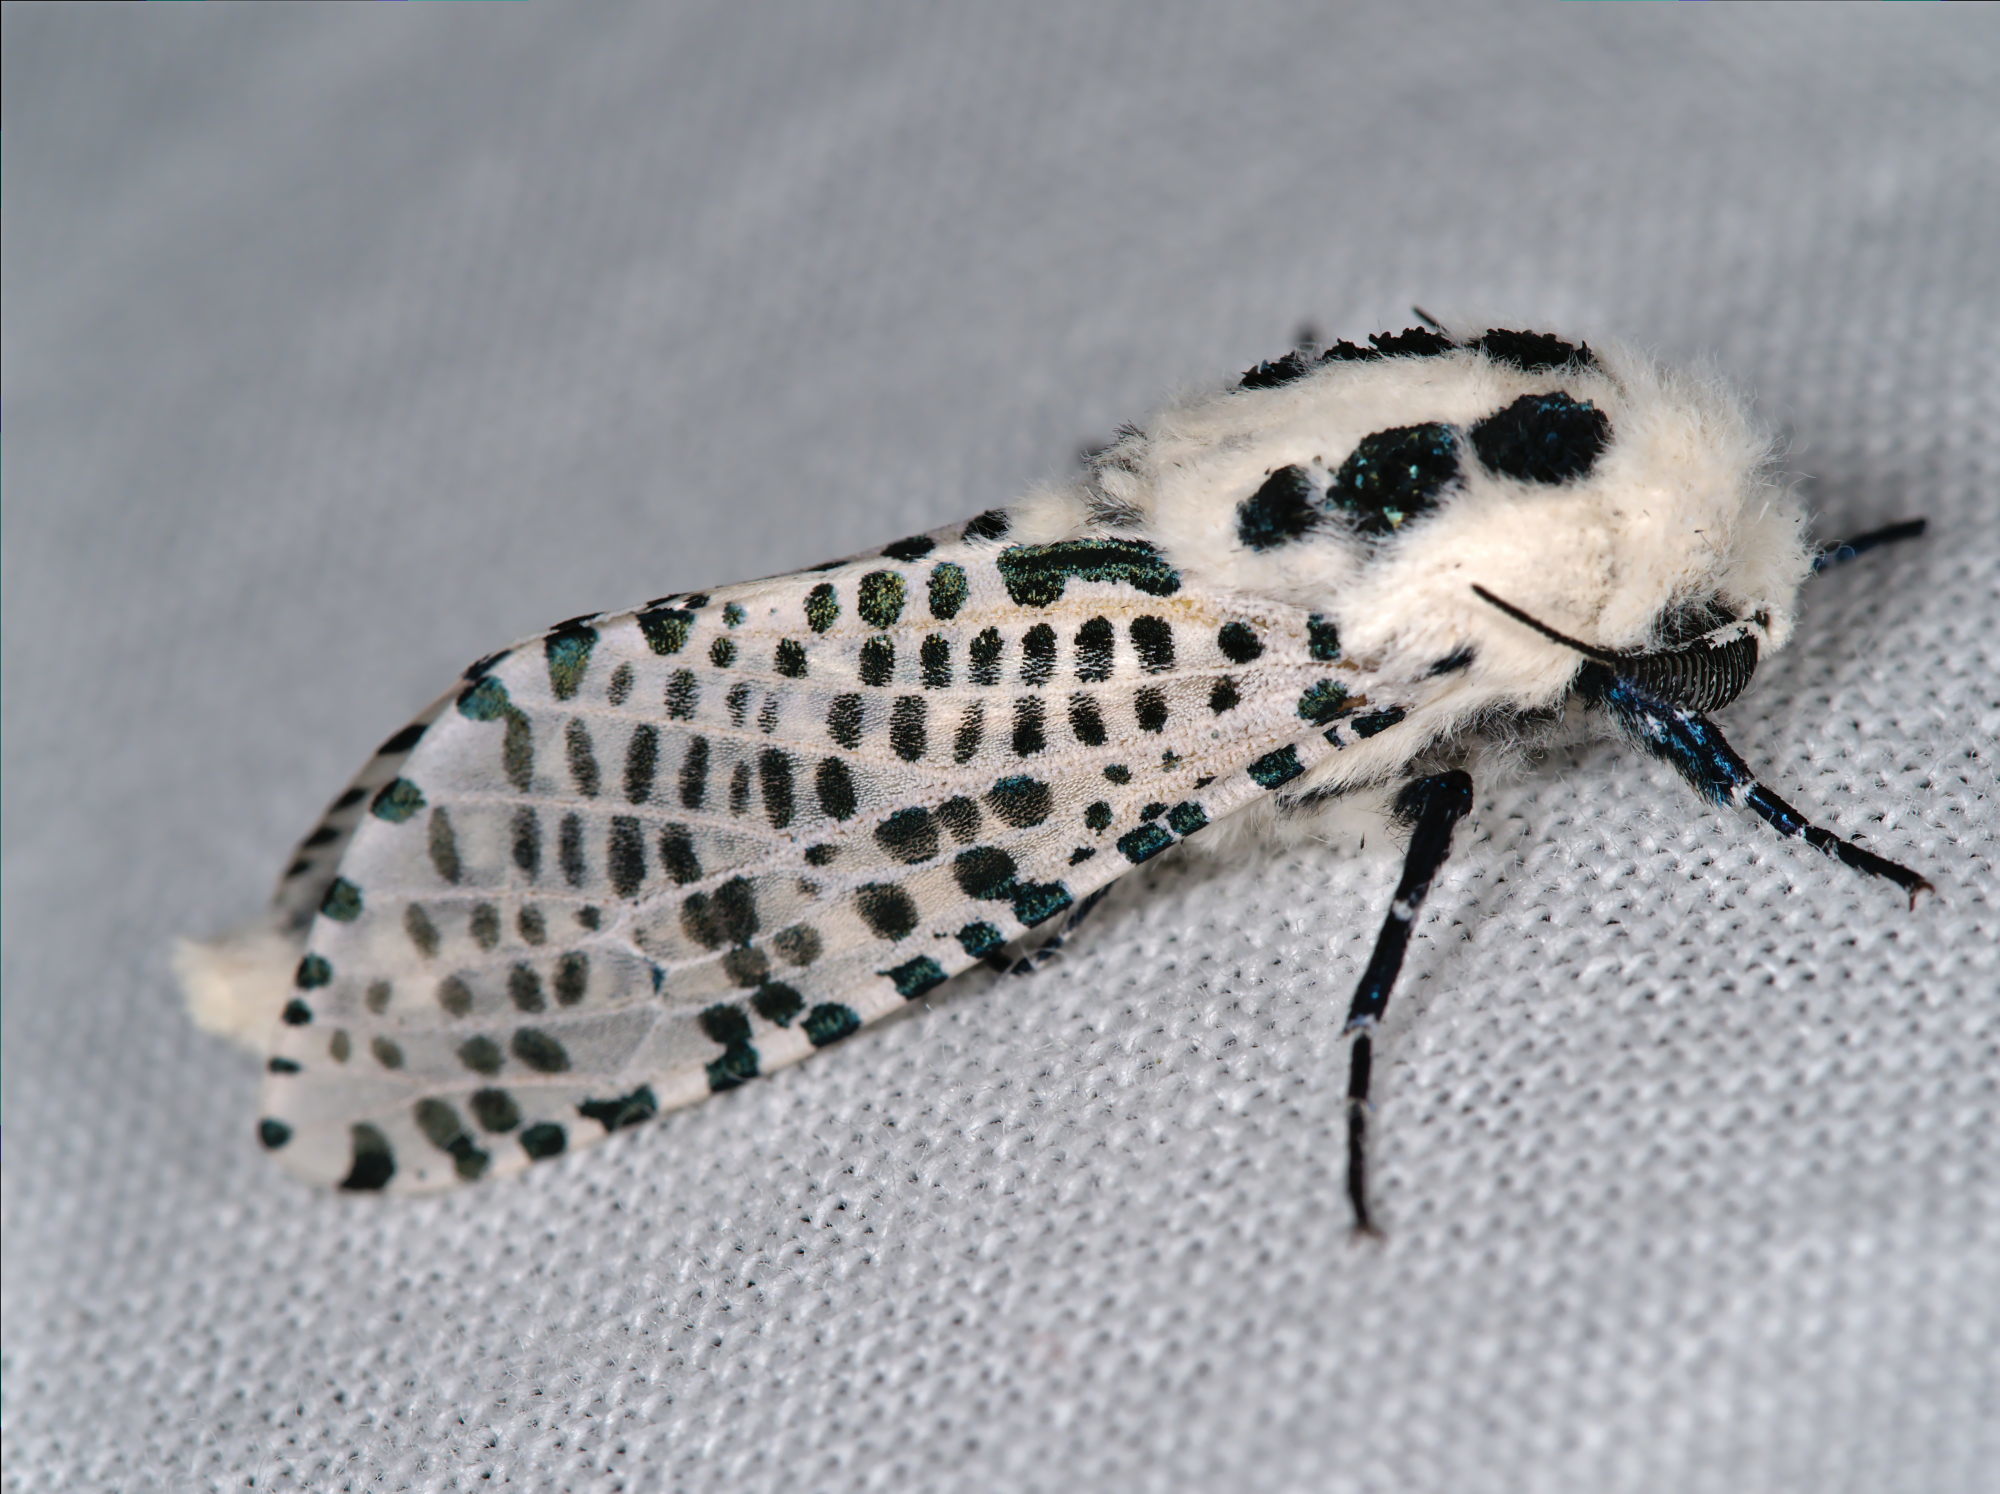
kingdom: Animalia
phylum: Arthropoda
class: Insecta
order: Lepidoptera
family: Cossidae
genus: Zeuzera
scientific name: Zeuzera pyrina
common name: Leopard moth
